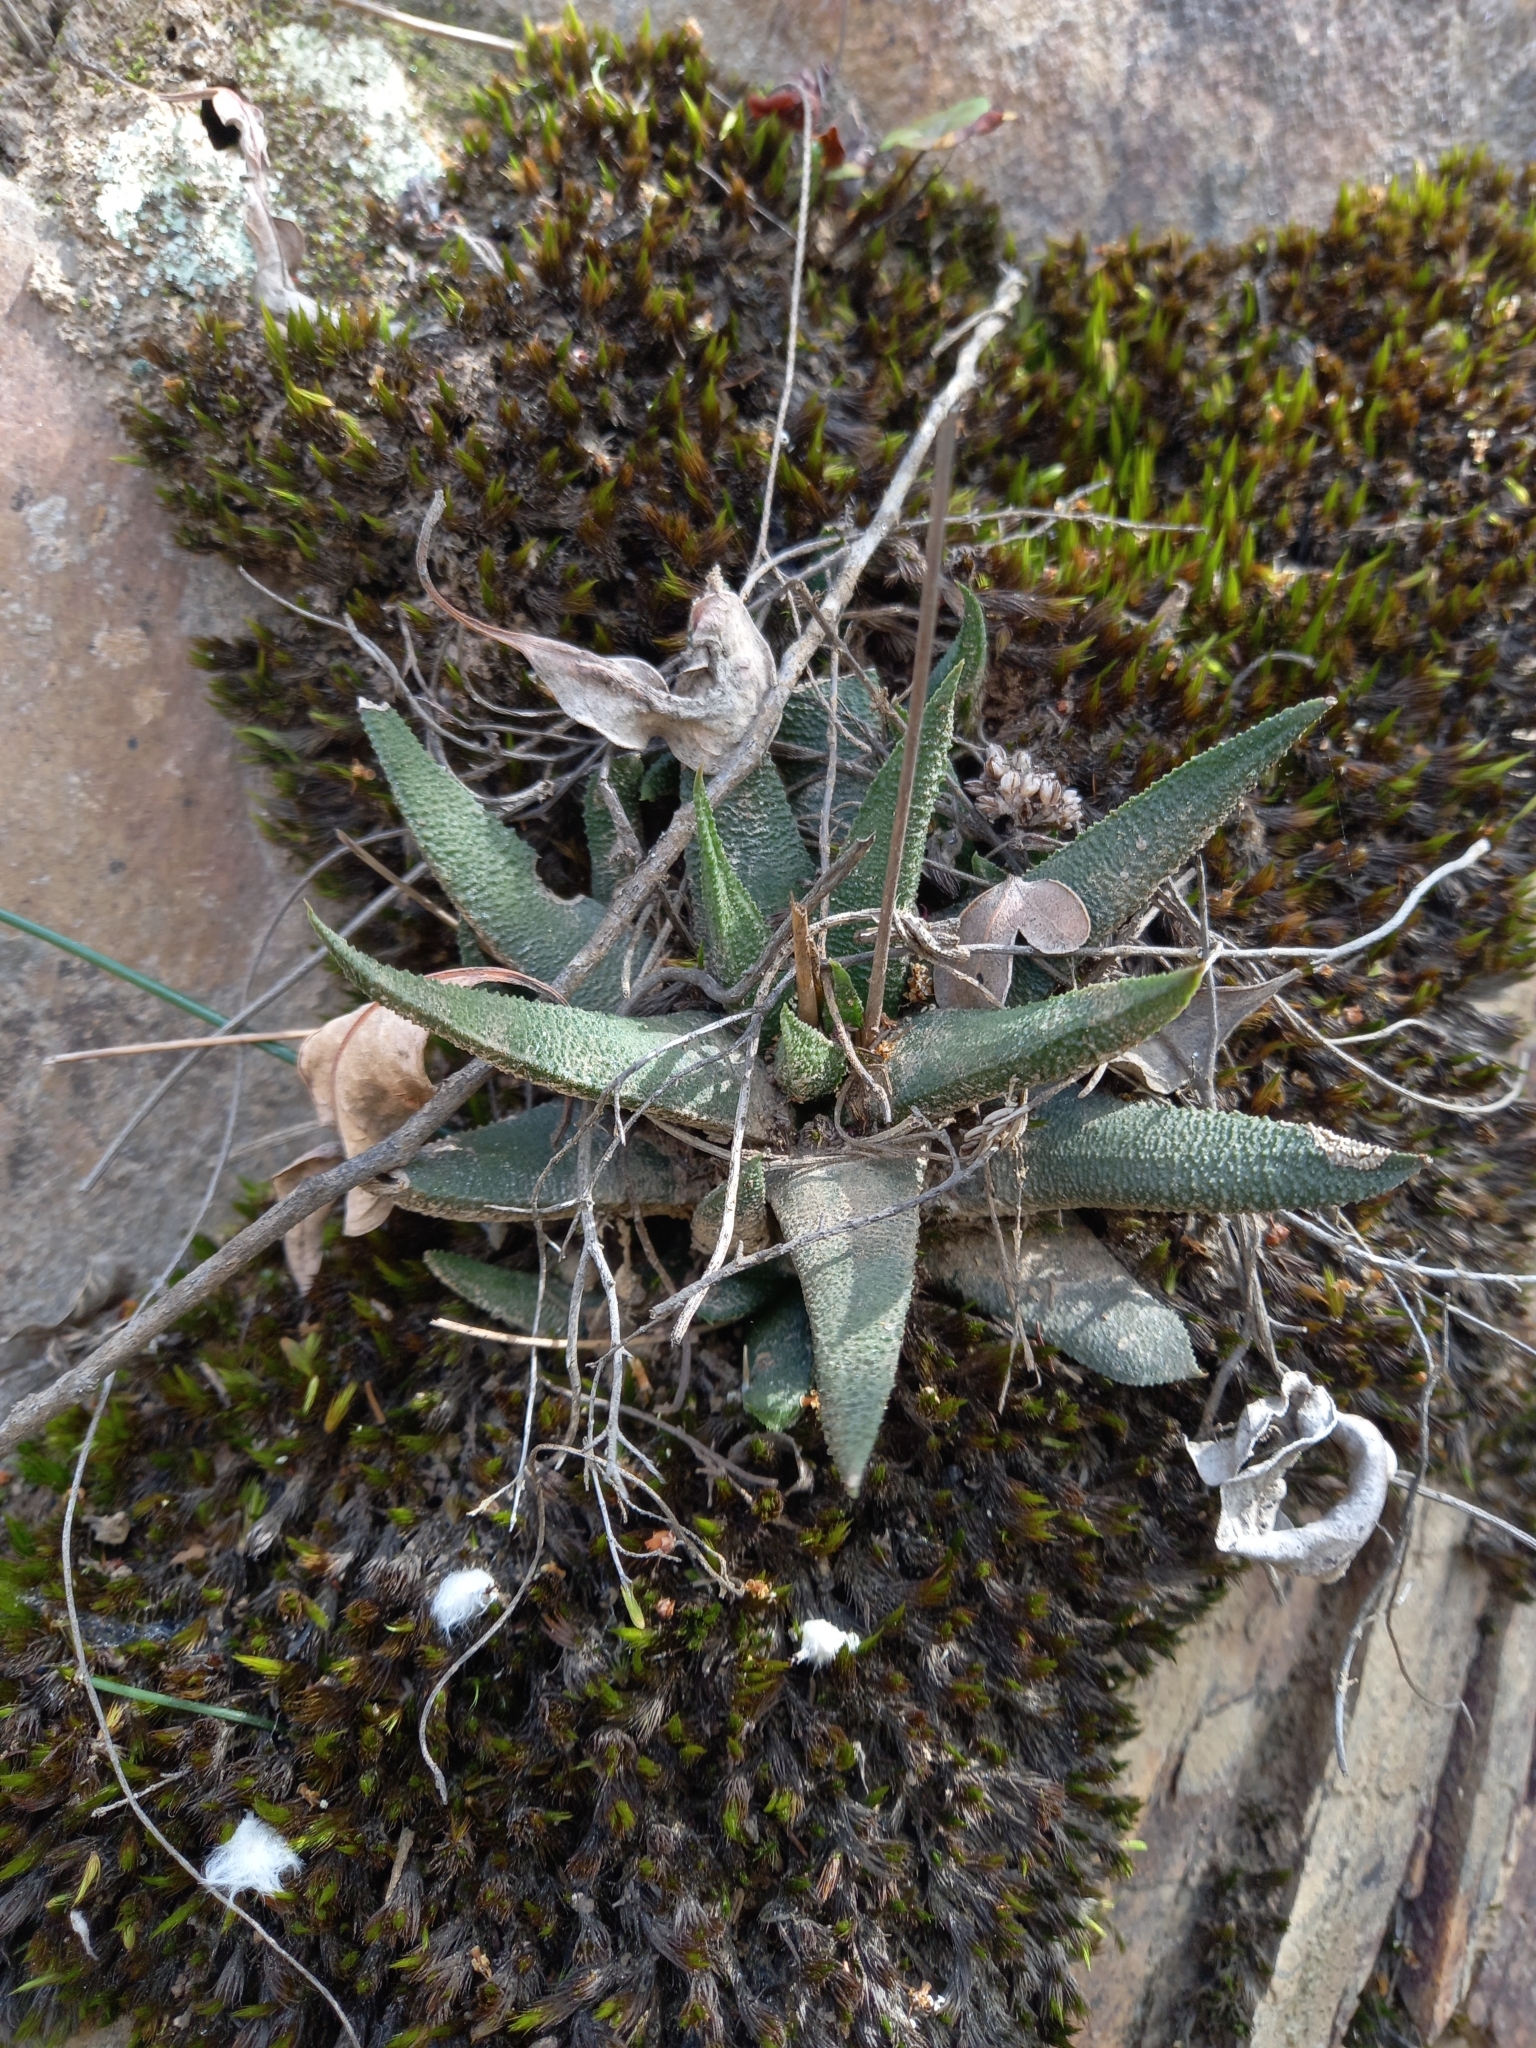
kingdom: Plantae
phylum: Tracheophyta
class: Liliopsida
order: Asparagales
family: Asphodelaceae
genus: Haworthiopsis
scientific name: Haworthiopsis scabra
